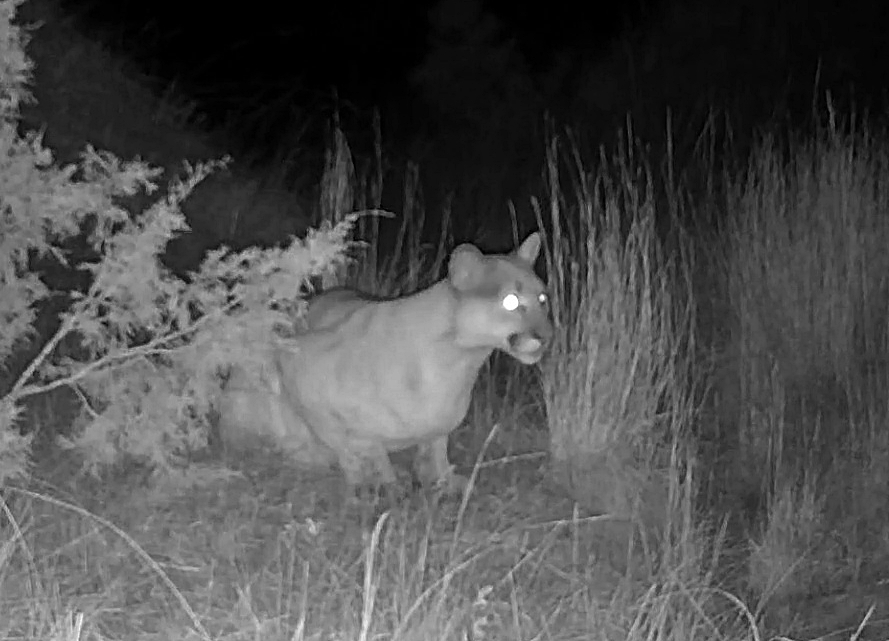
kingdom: Animalia
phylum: Chordata
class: Mammalia
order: Carnivora
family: Felidae
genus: Puma
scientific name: Puma concolor
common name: Puma
